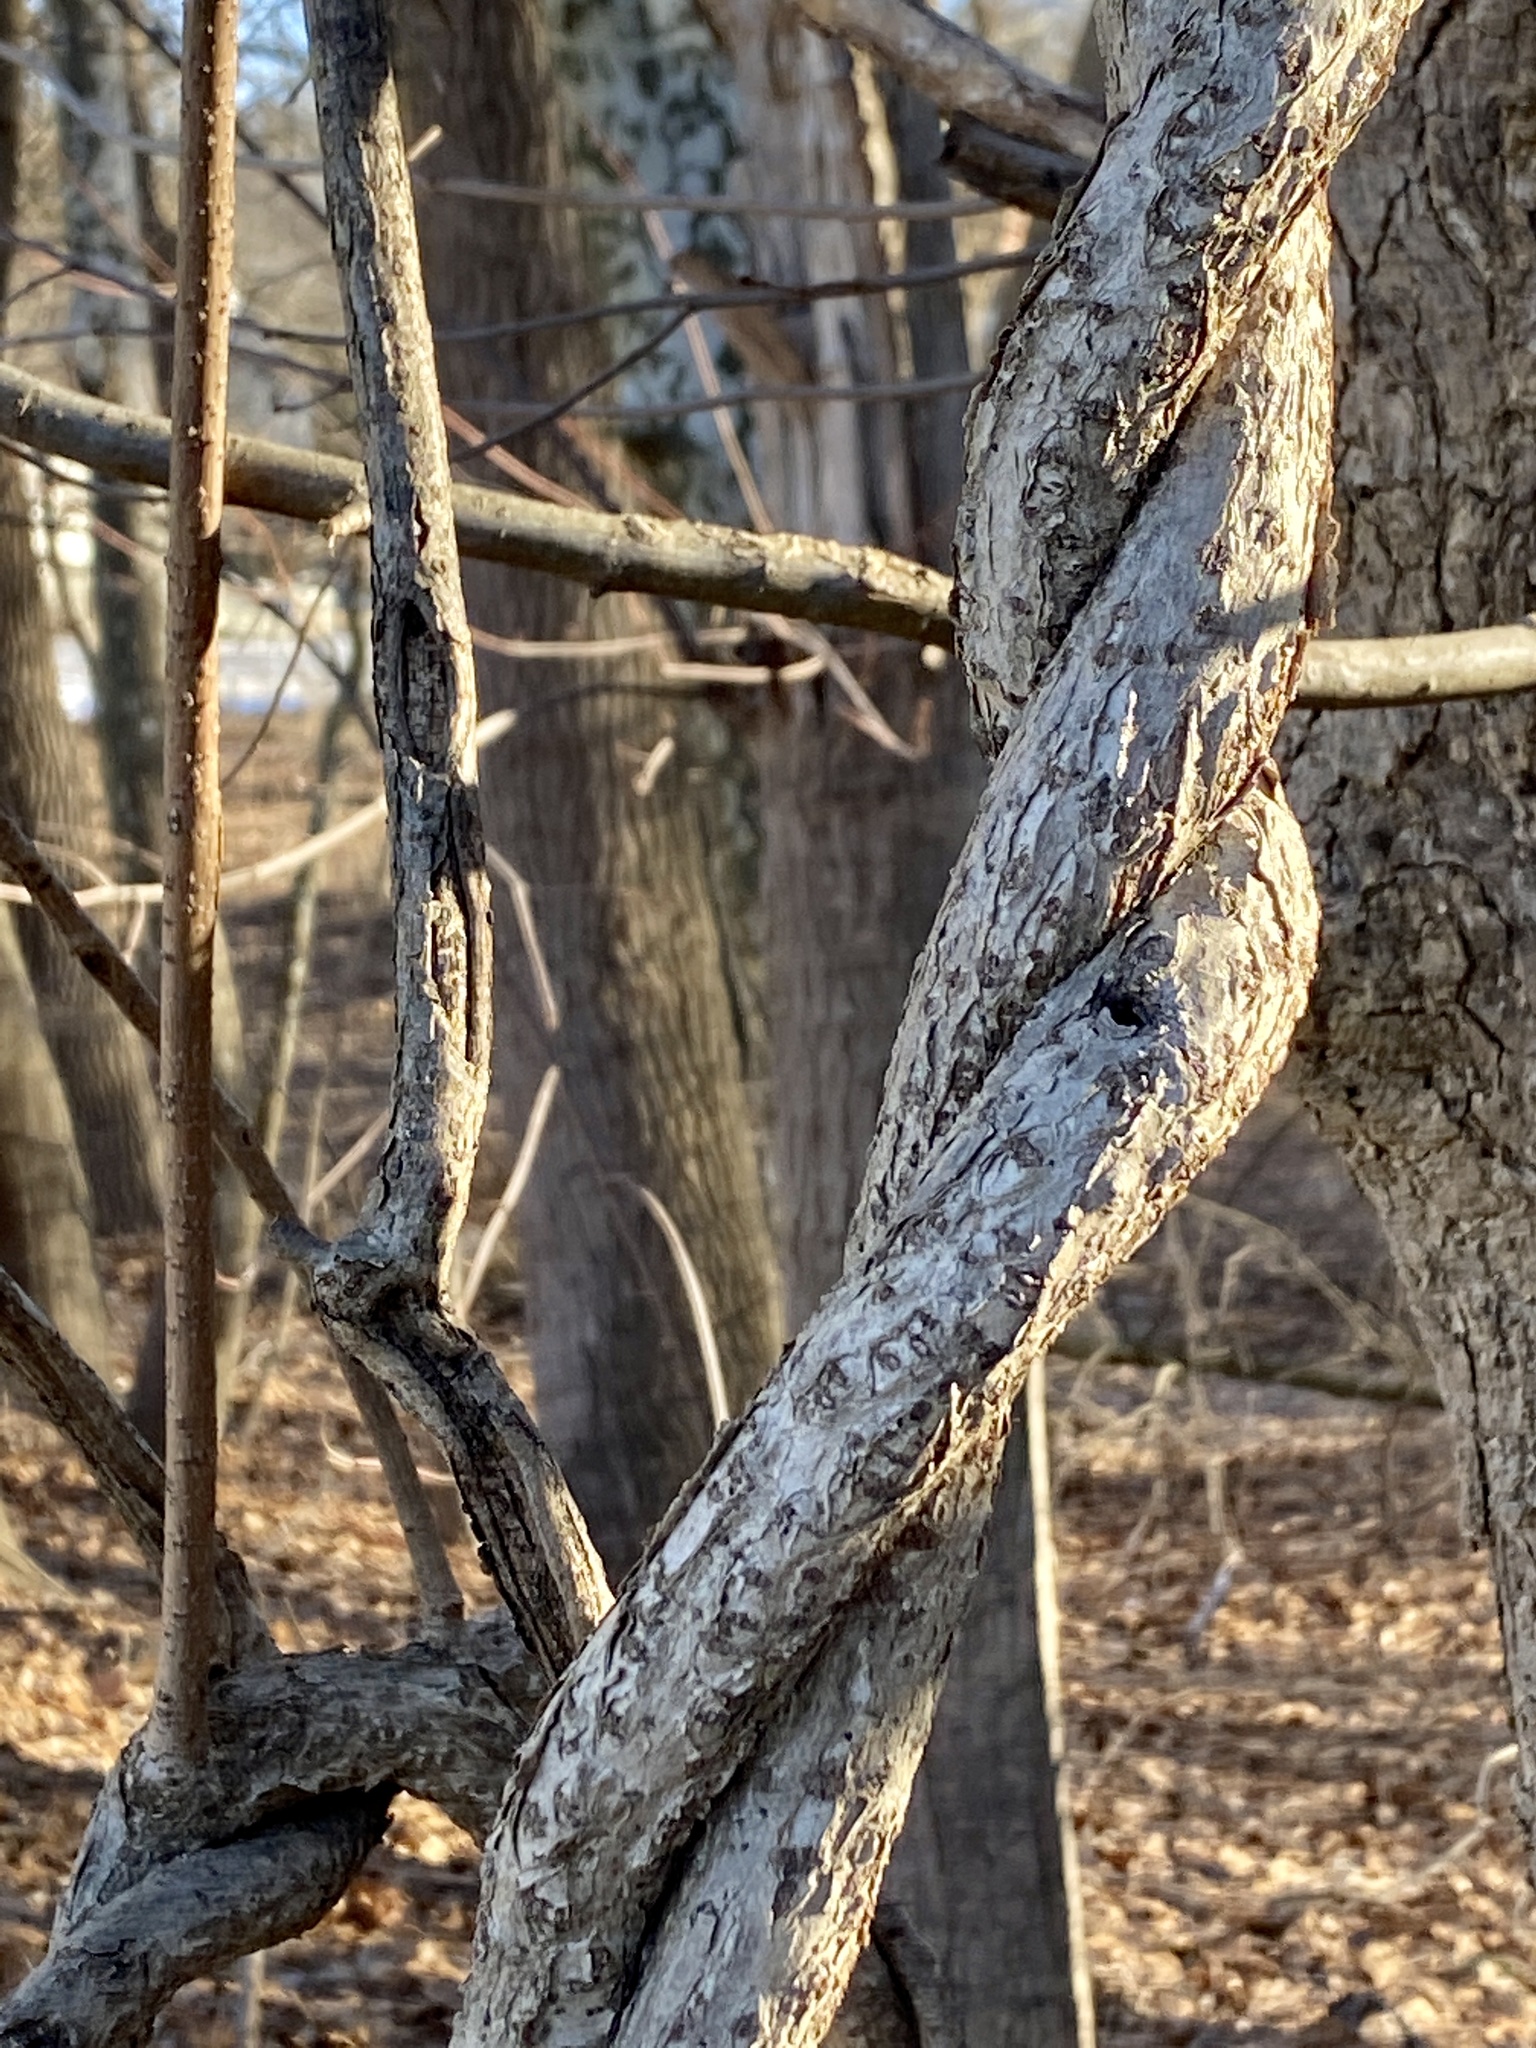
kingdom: Plantae
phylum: Tracheophyta
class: Magnoliopsida
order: Celastrales
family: Celastraceae
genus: Celastrus
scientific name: Celastrus orbiculatus
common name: Oriental bittersweet
